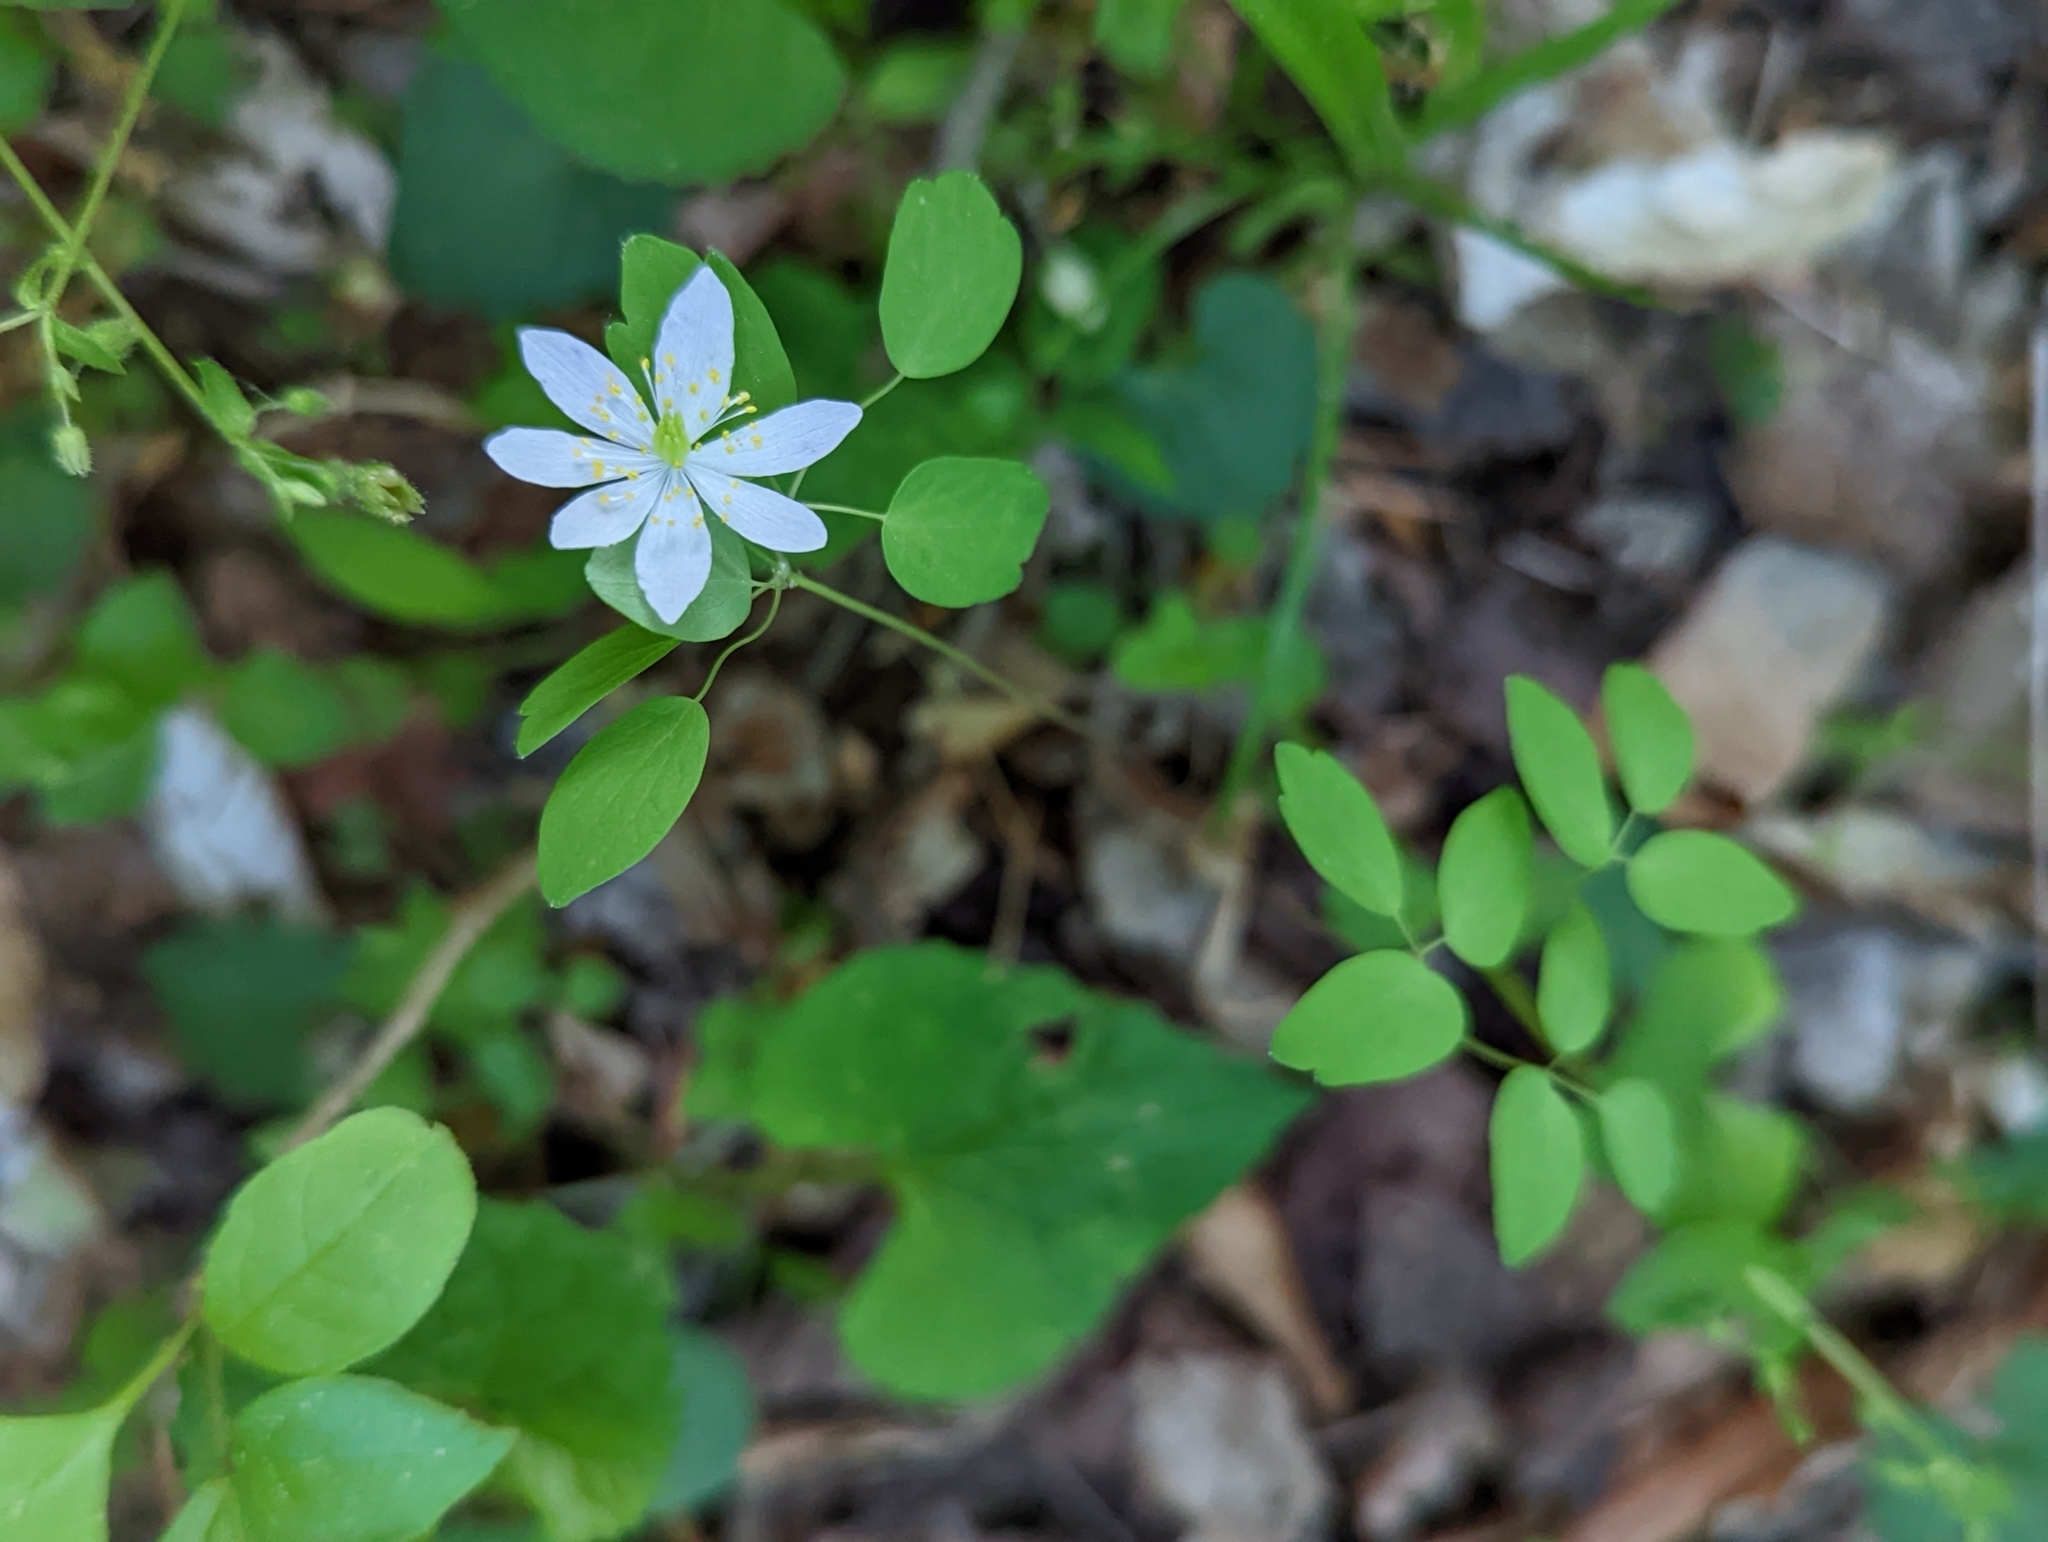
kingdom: Plantae
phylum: Tracheophyta
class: Magnoliopsida
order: Ranunculales
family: Ranunculaceae
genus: Thalictrum
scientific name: Thalictrum thalictroides
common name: Rue-anemone
